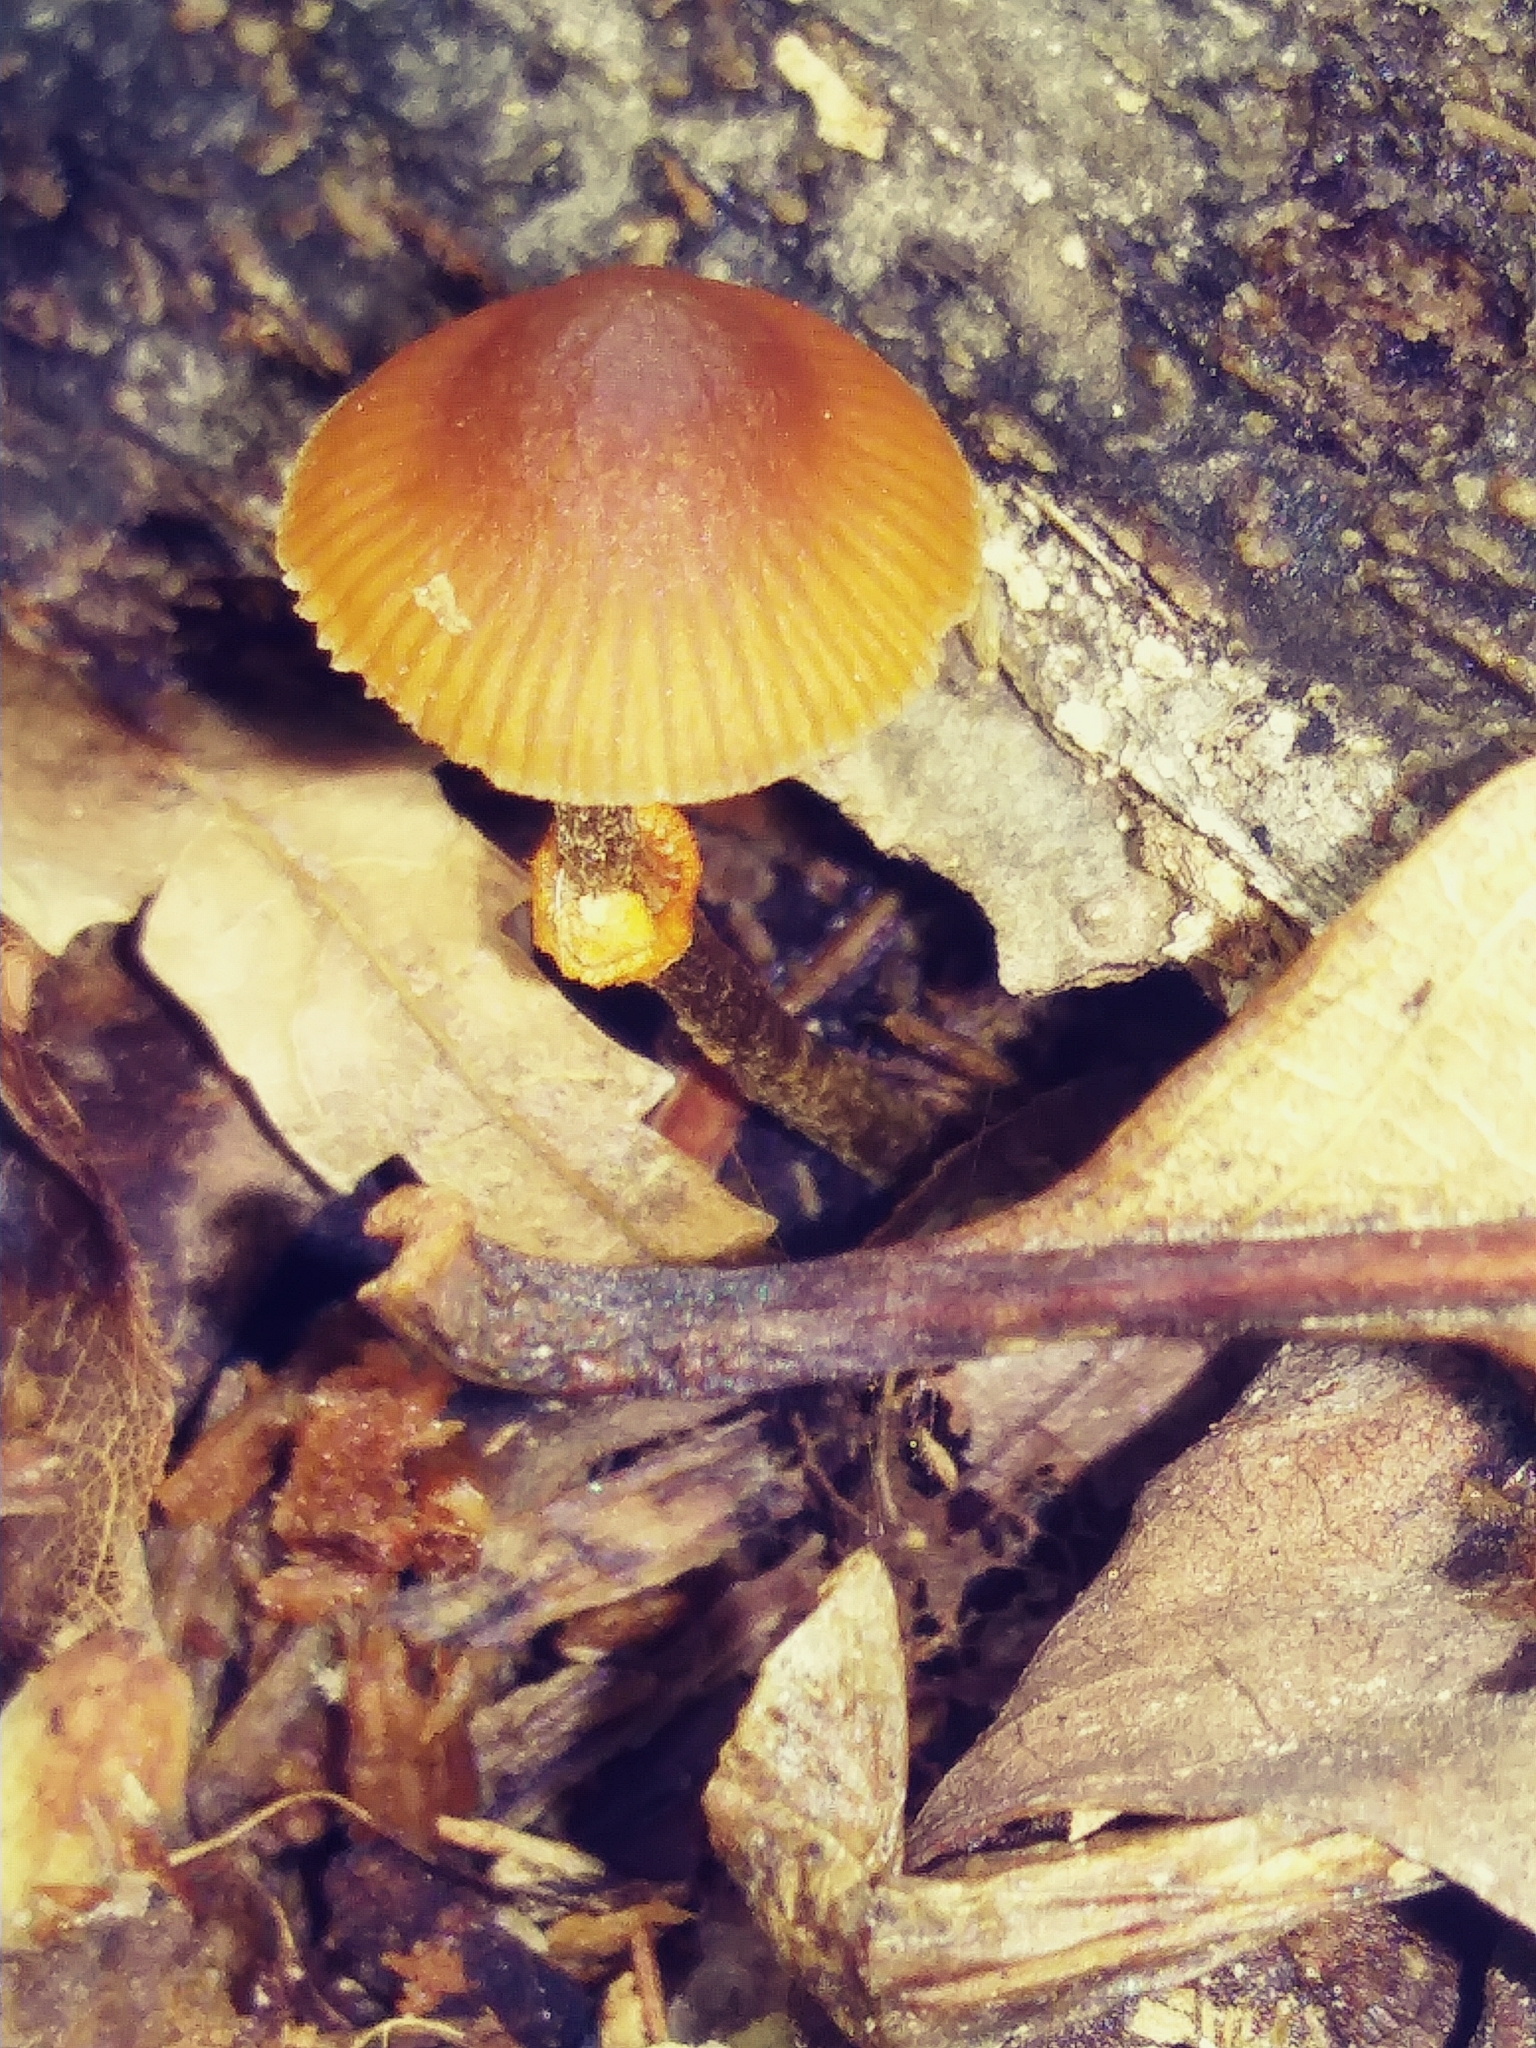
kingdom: Fungi
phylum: Basidiomycota
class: Agaricomycetes
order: Agaricales
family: Bolbitiaceae
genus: Conocybe
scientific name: Conocybe rugosa
